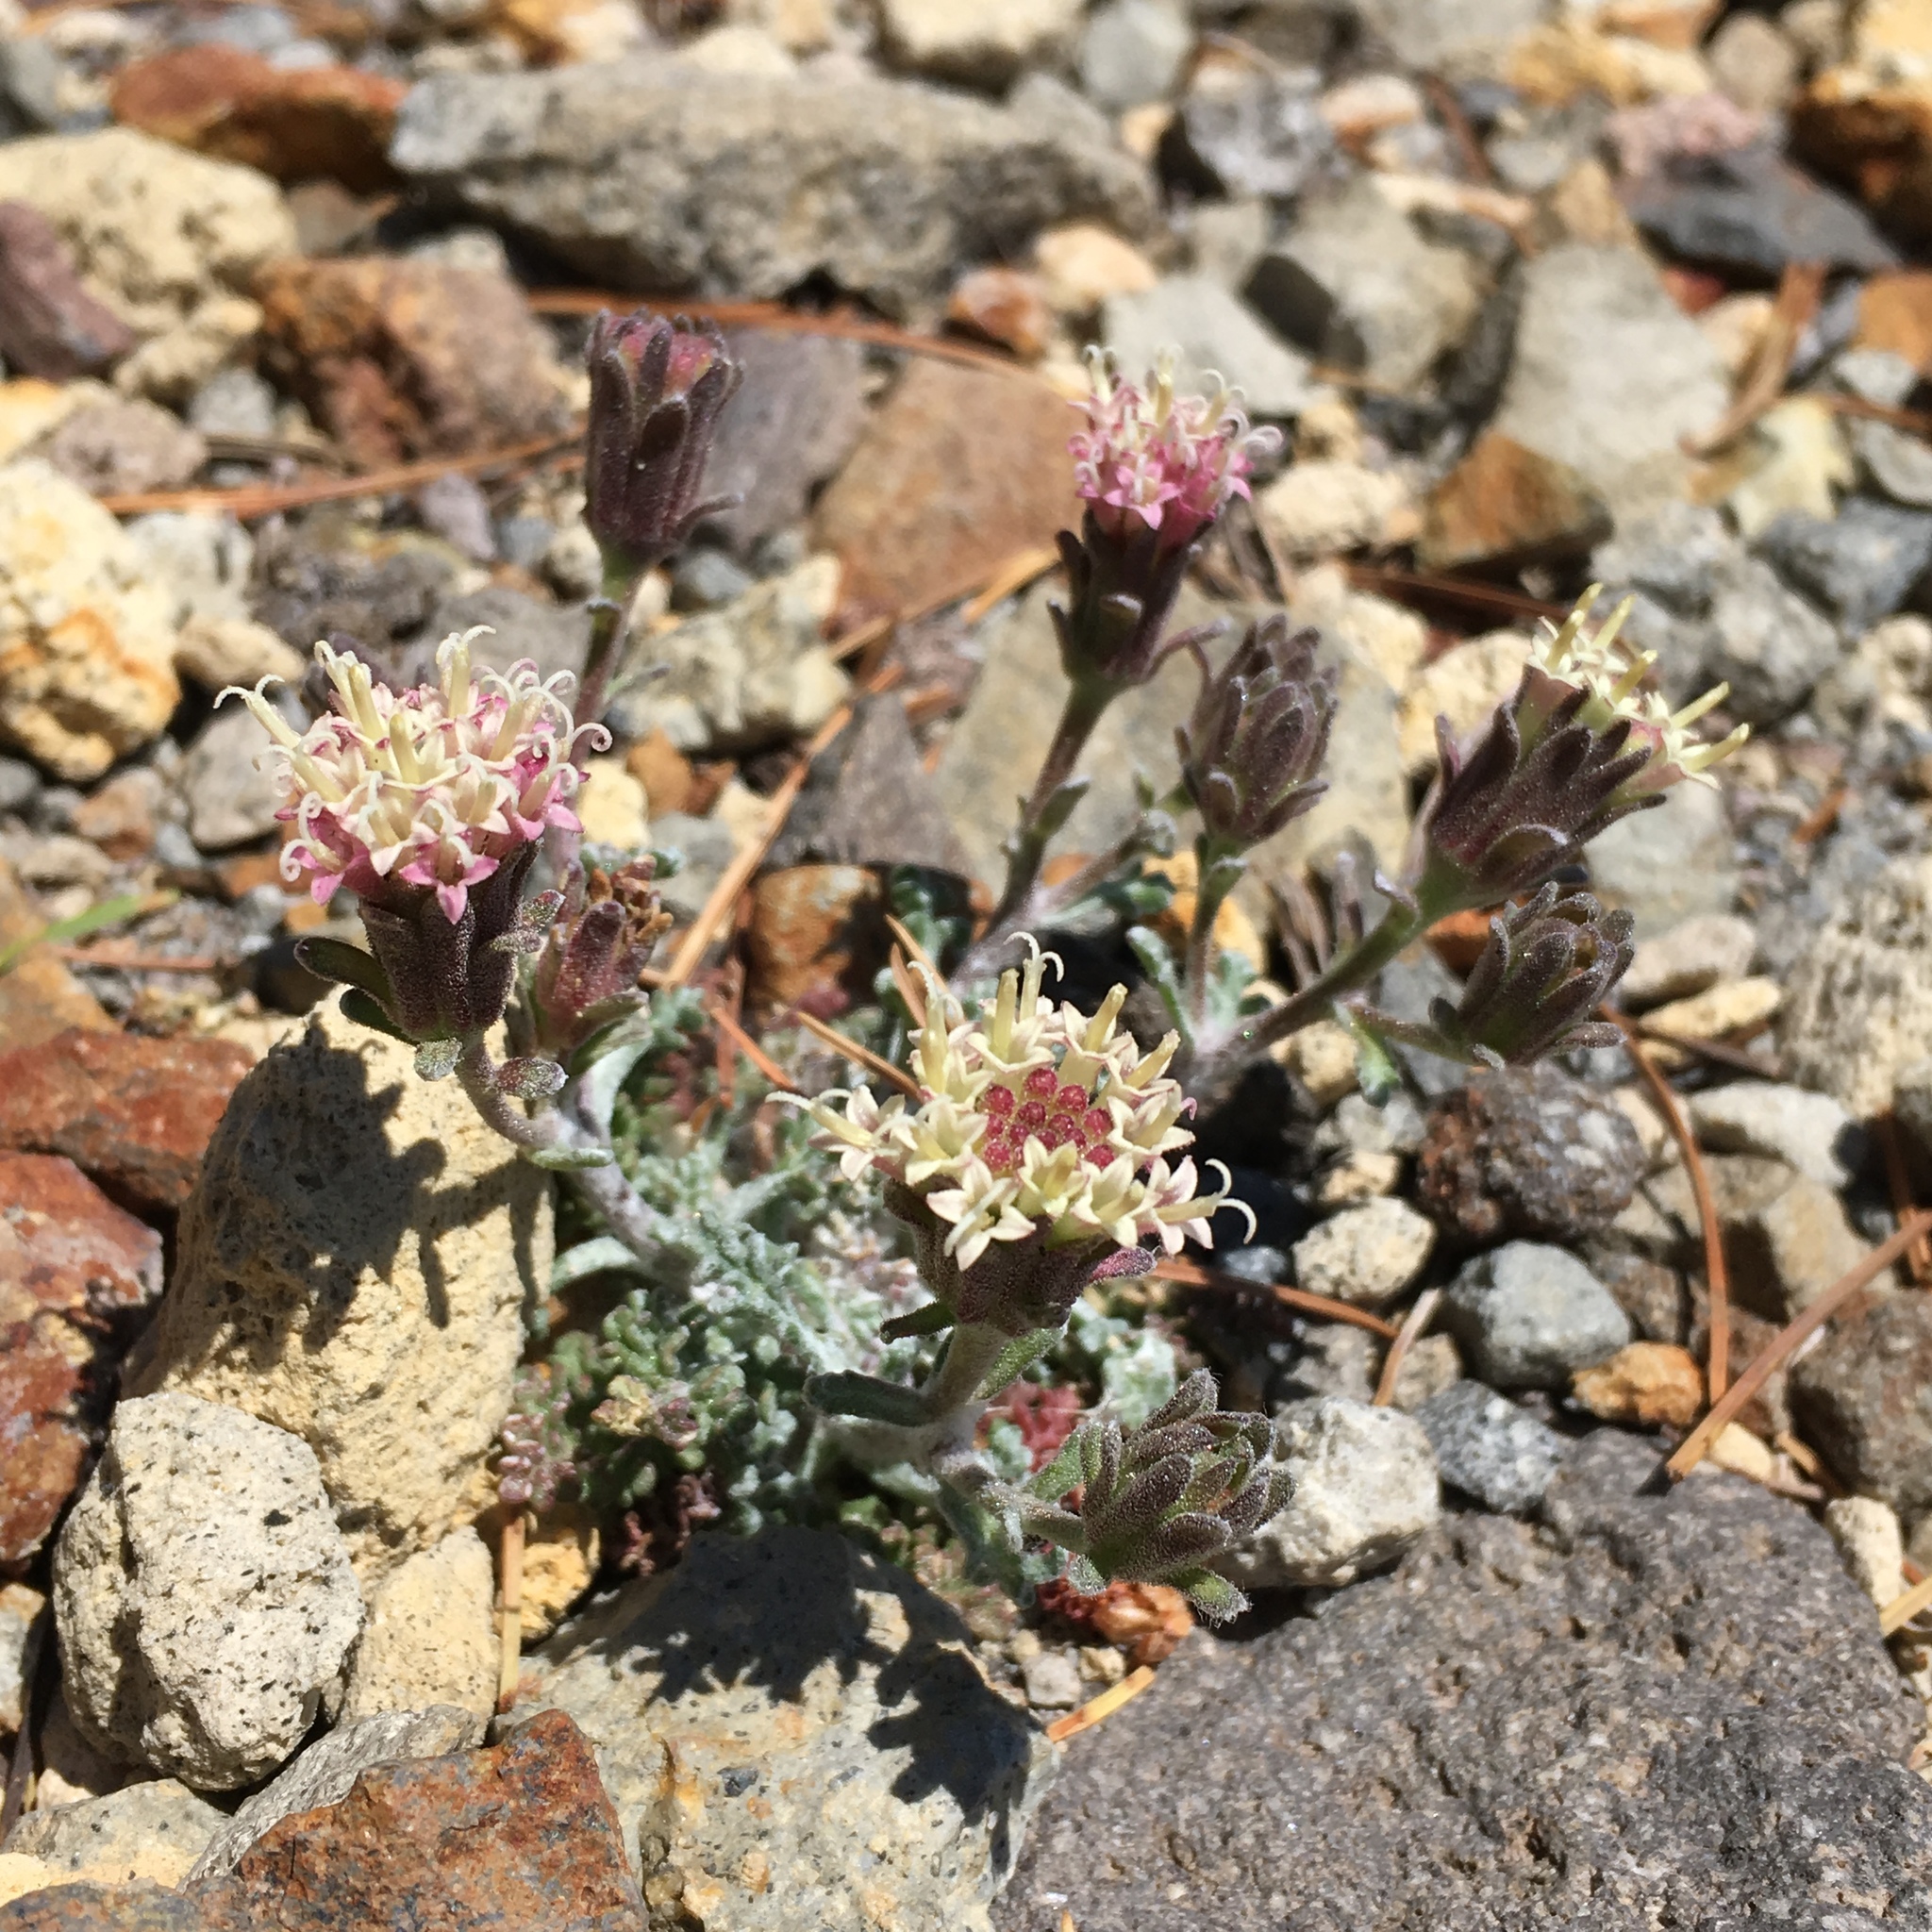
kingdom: Plantae
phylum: Tracheophyta
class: Magnoliopsida
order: Asterales
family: Asteraceae
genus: Chaenactis
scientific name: Chaenactis douglasii
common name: Hoary pincushion
